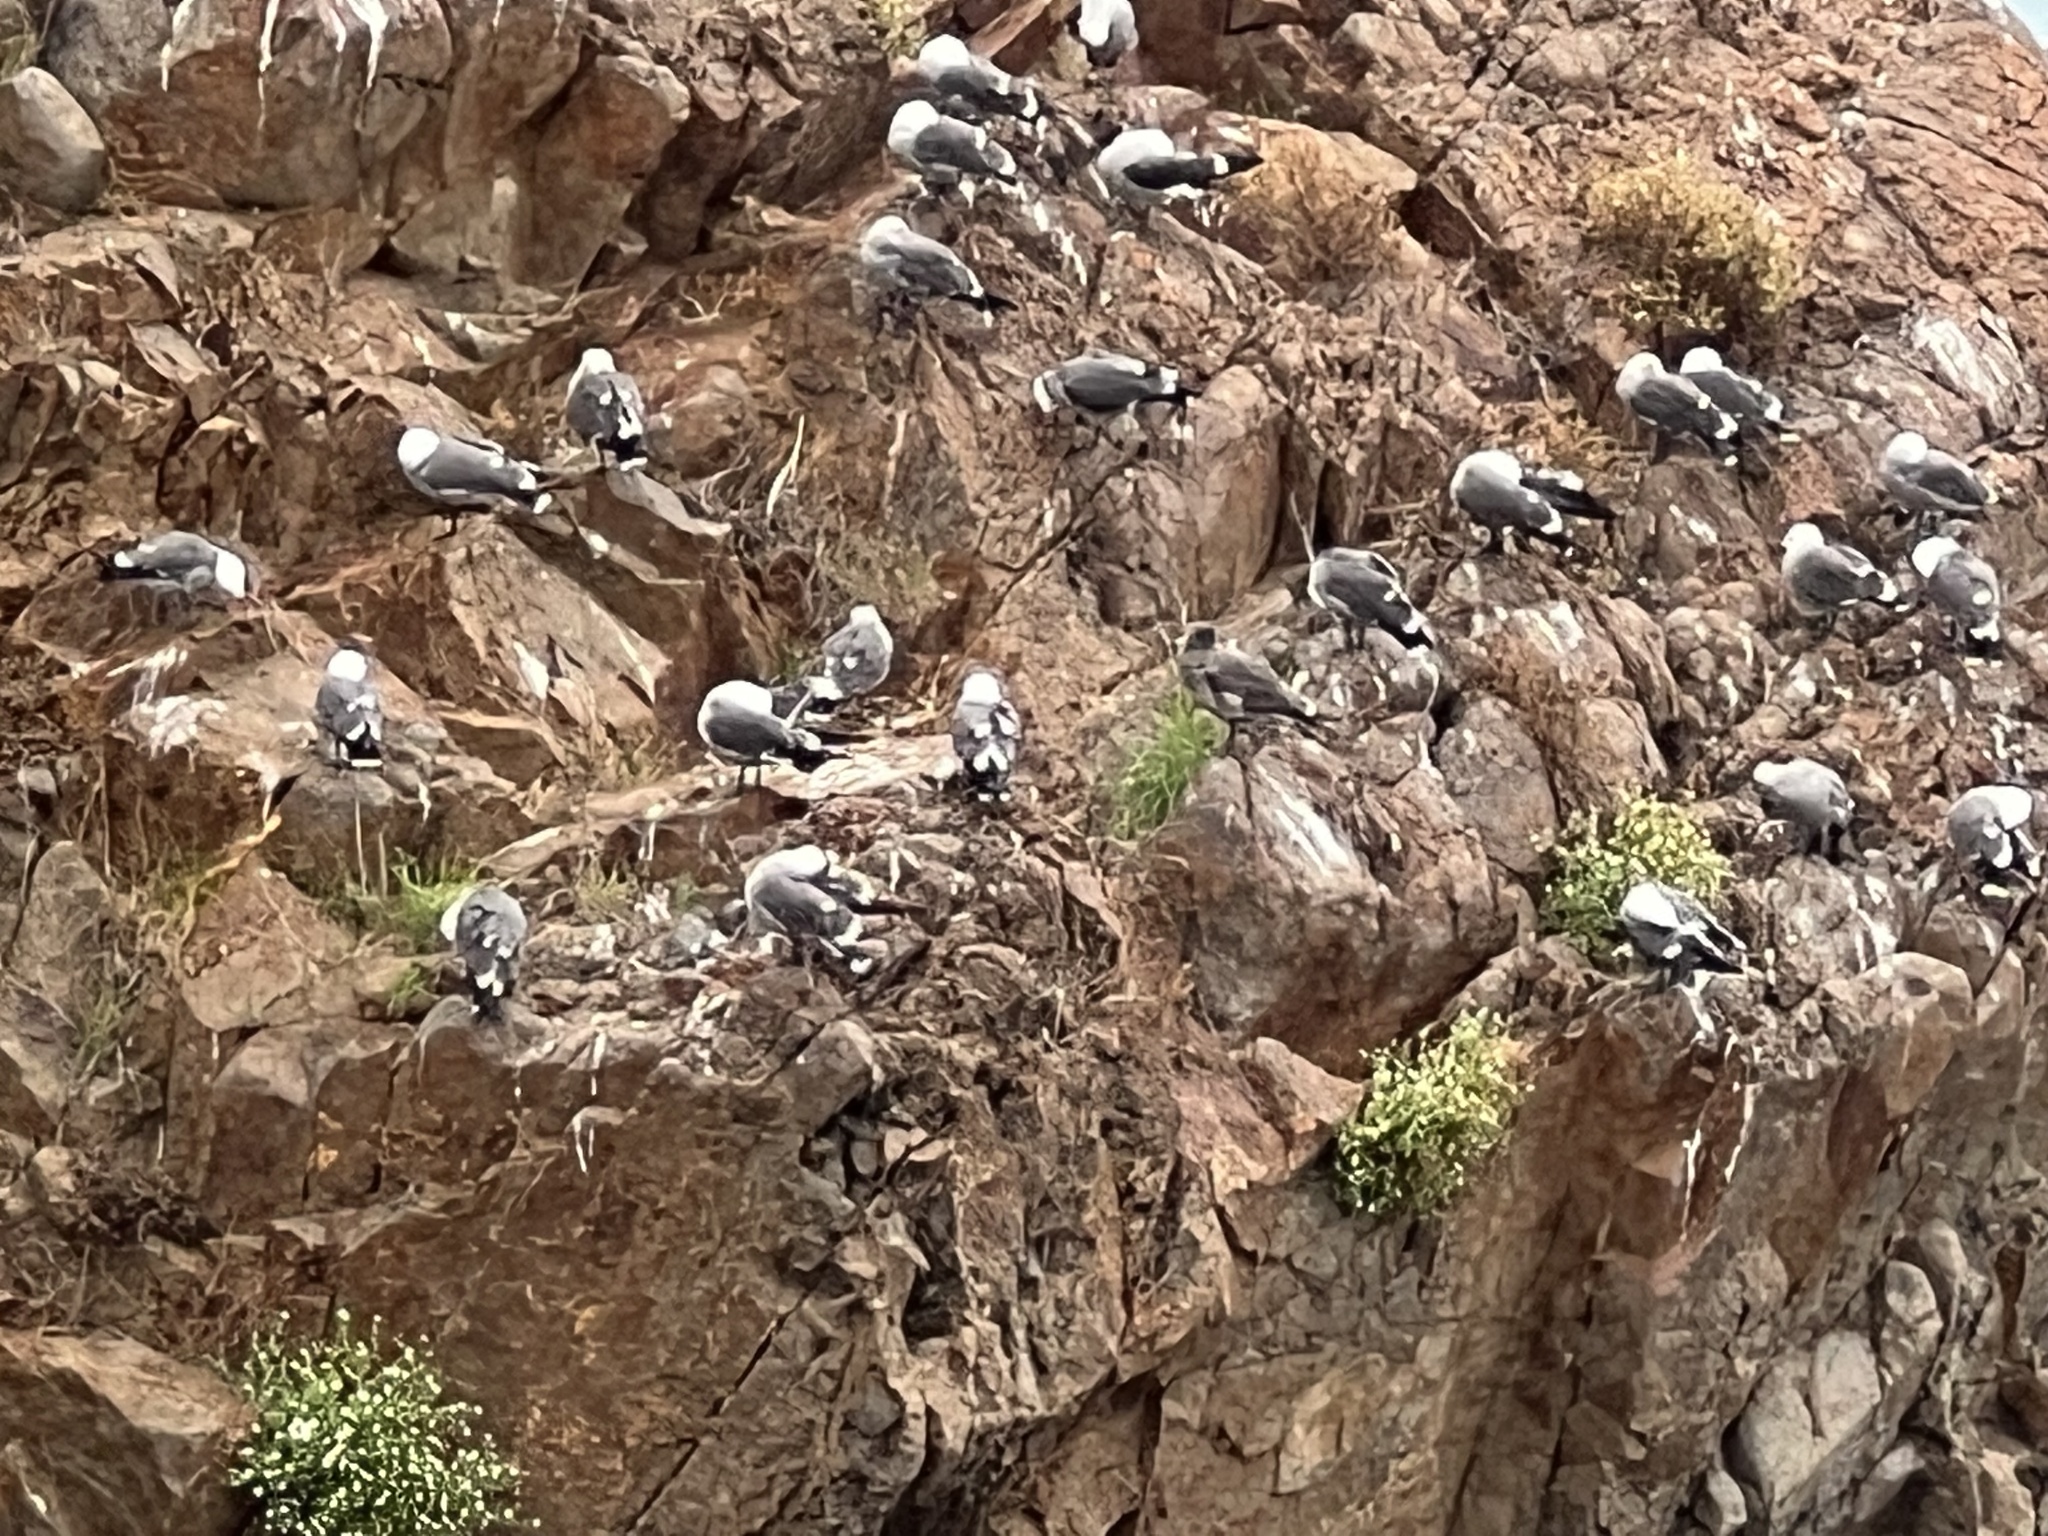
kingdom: Animalia
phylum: Chordata
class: Aves
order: Charadriiformes
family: Laridae
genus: Larus
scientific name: Larus heermanni
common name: Heermann's gull
